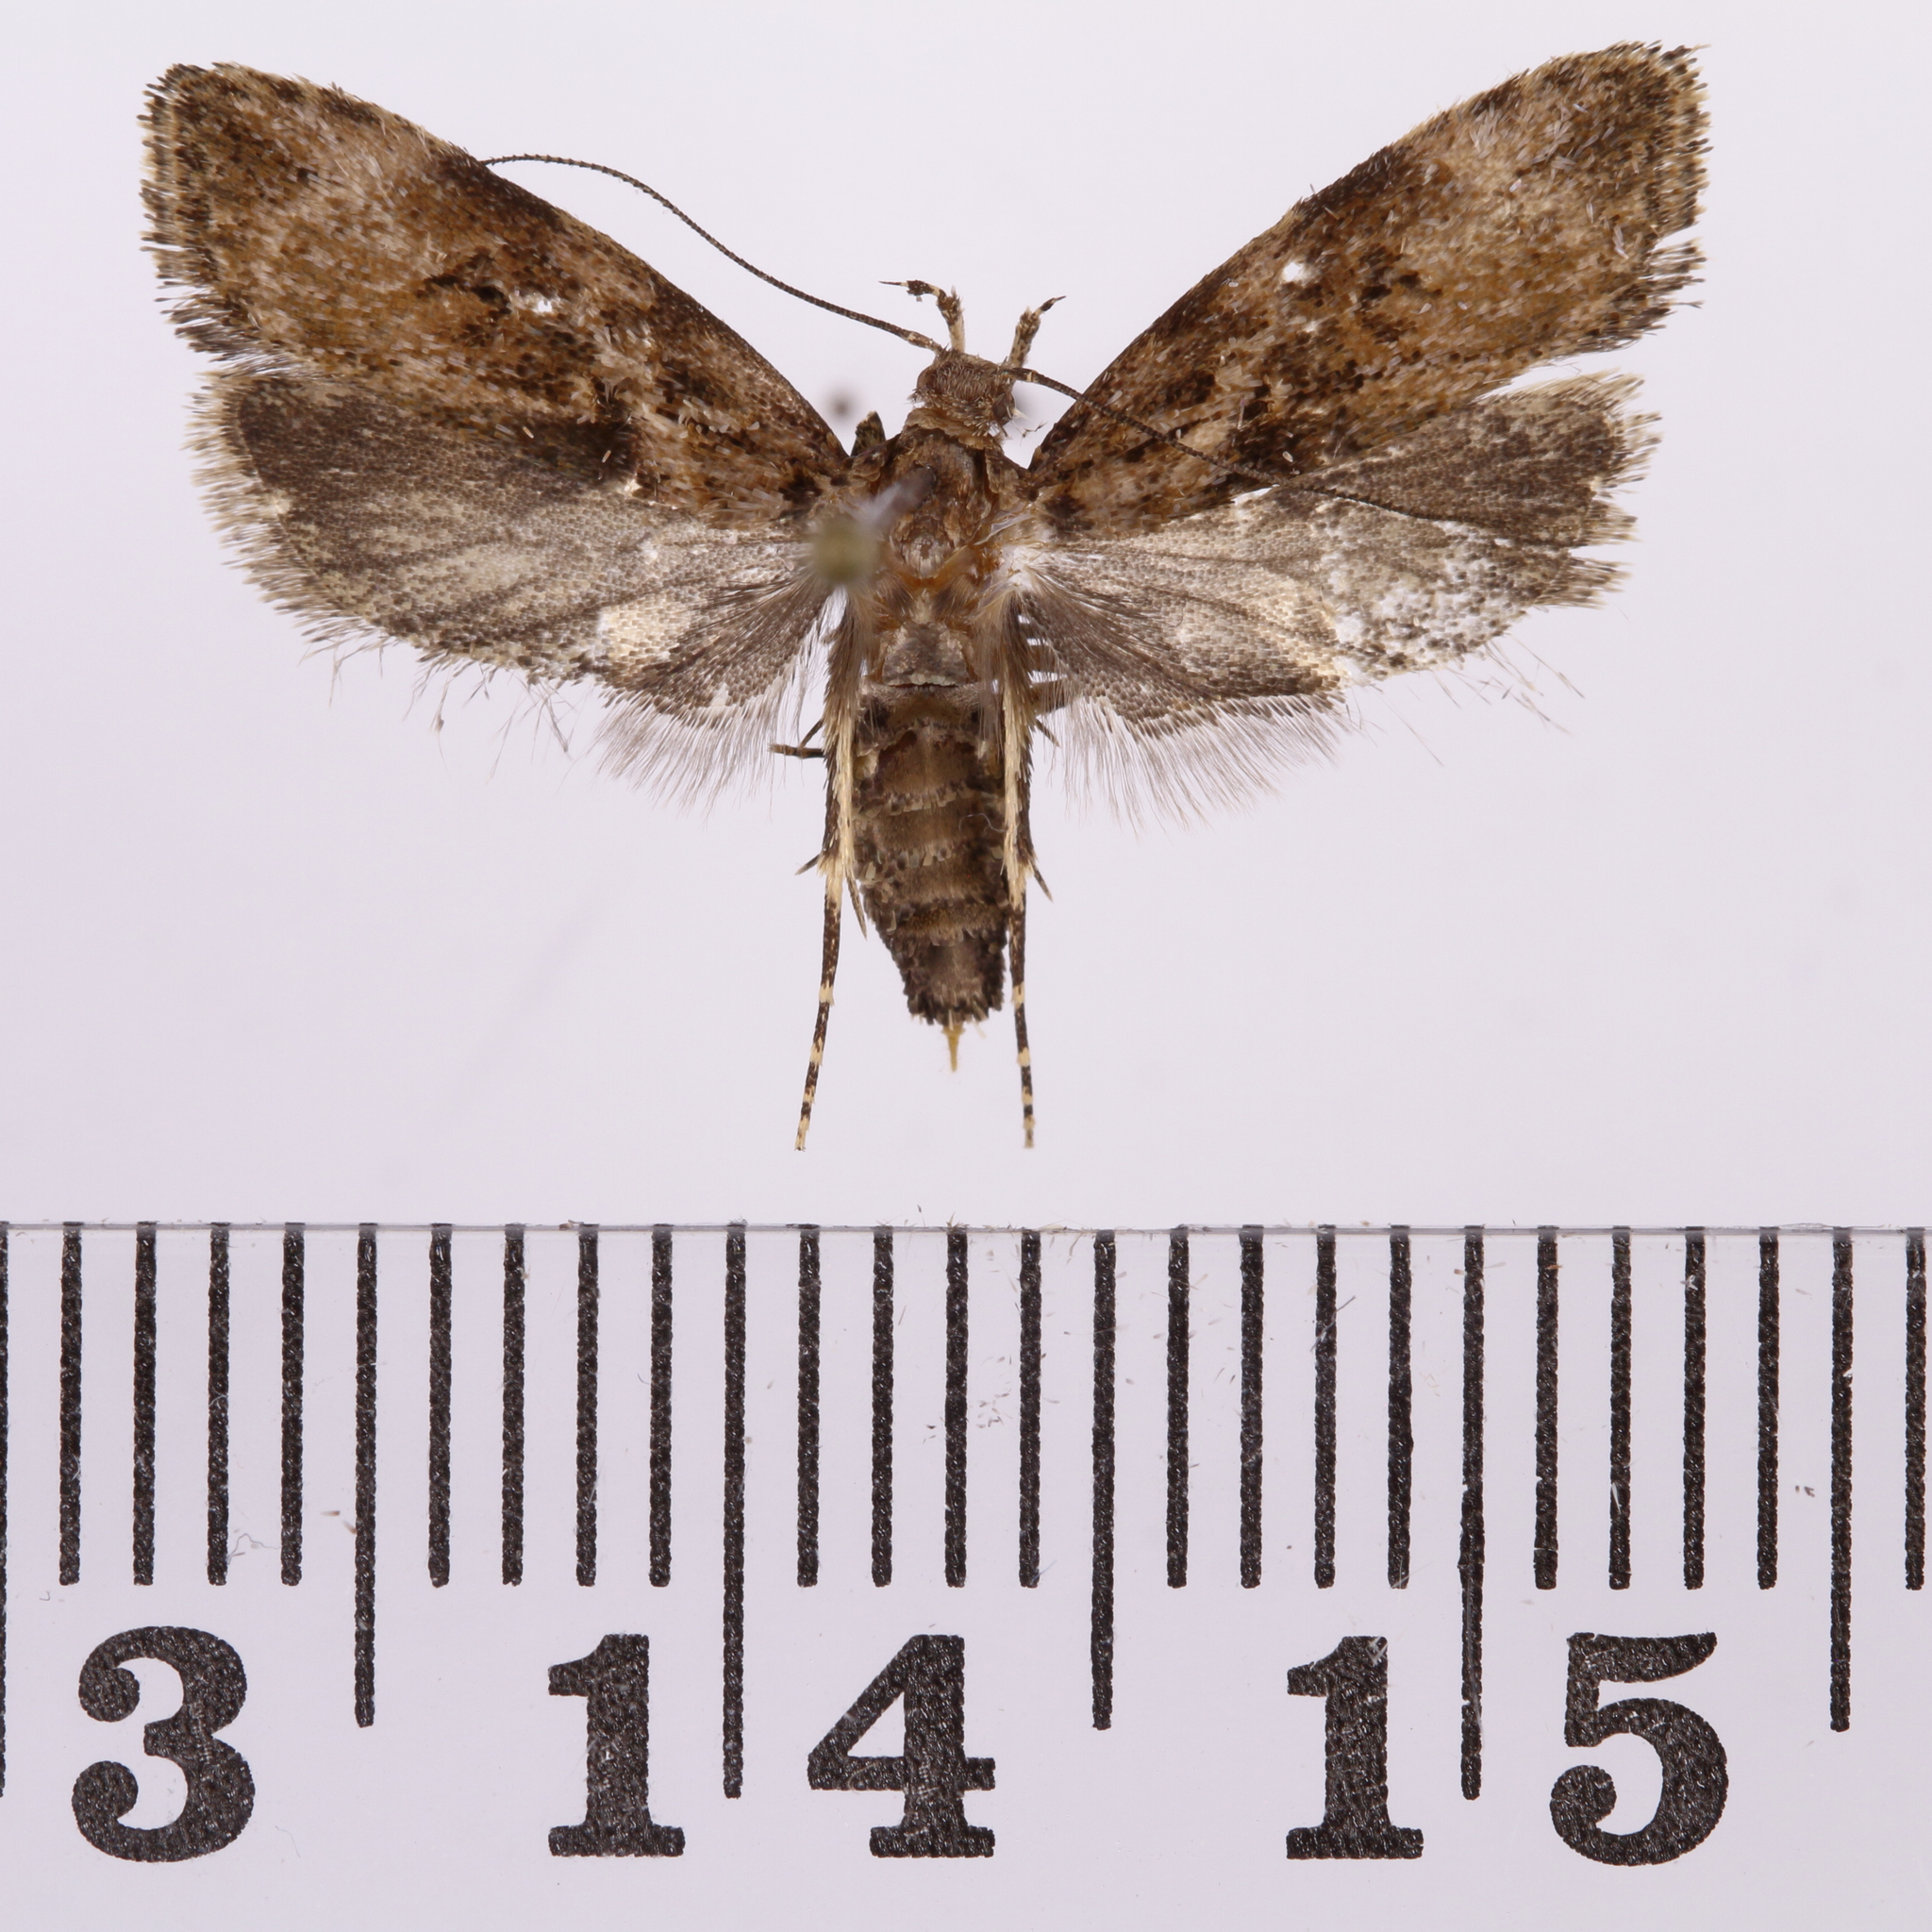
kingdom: Animalia
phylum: Arthropoda
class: Insecta
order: Lepidoptera
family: Oecophoridae
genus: Izatha
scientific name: Izatha austera
